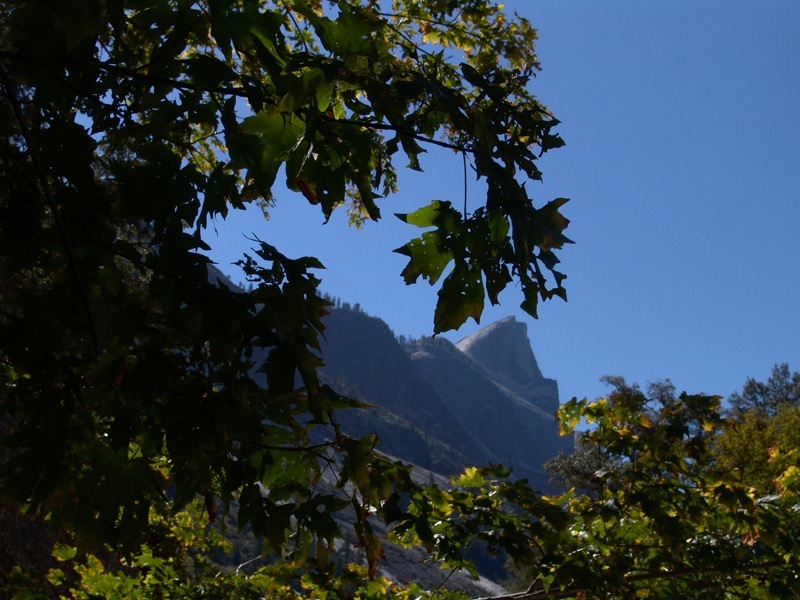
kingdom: Plantae
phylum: Tracheophyta
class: Magnoliopsida
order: Sapindales
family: Sapindaceae
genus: Acer
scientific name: Acer macrophyllum
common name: Oregon maple
